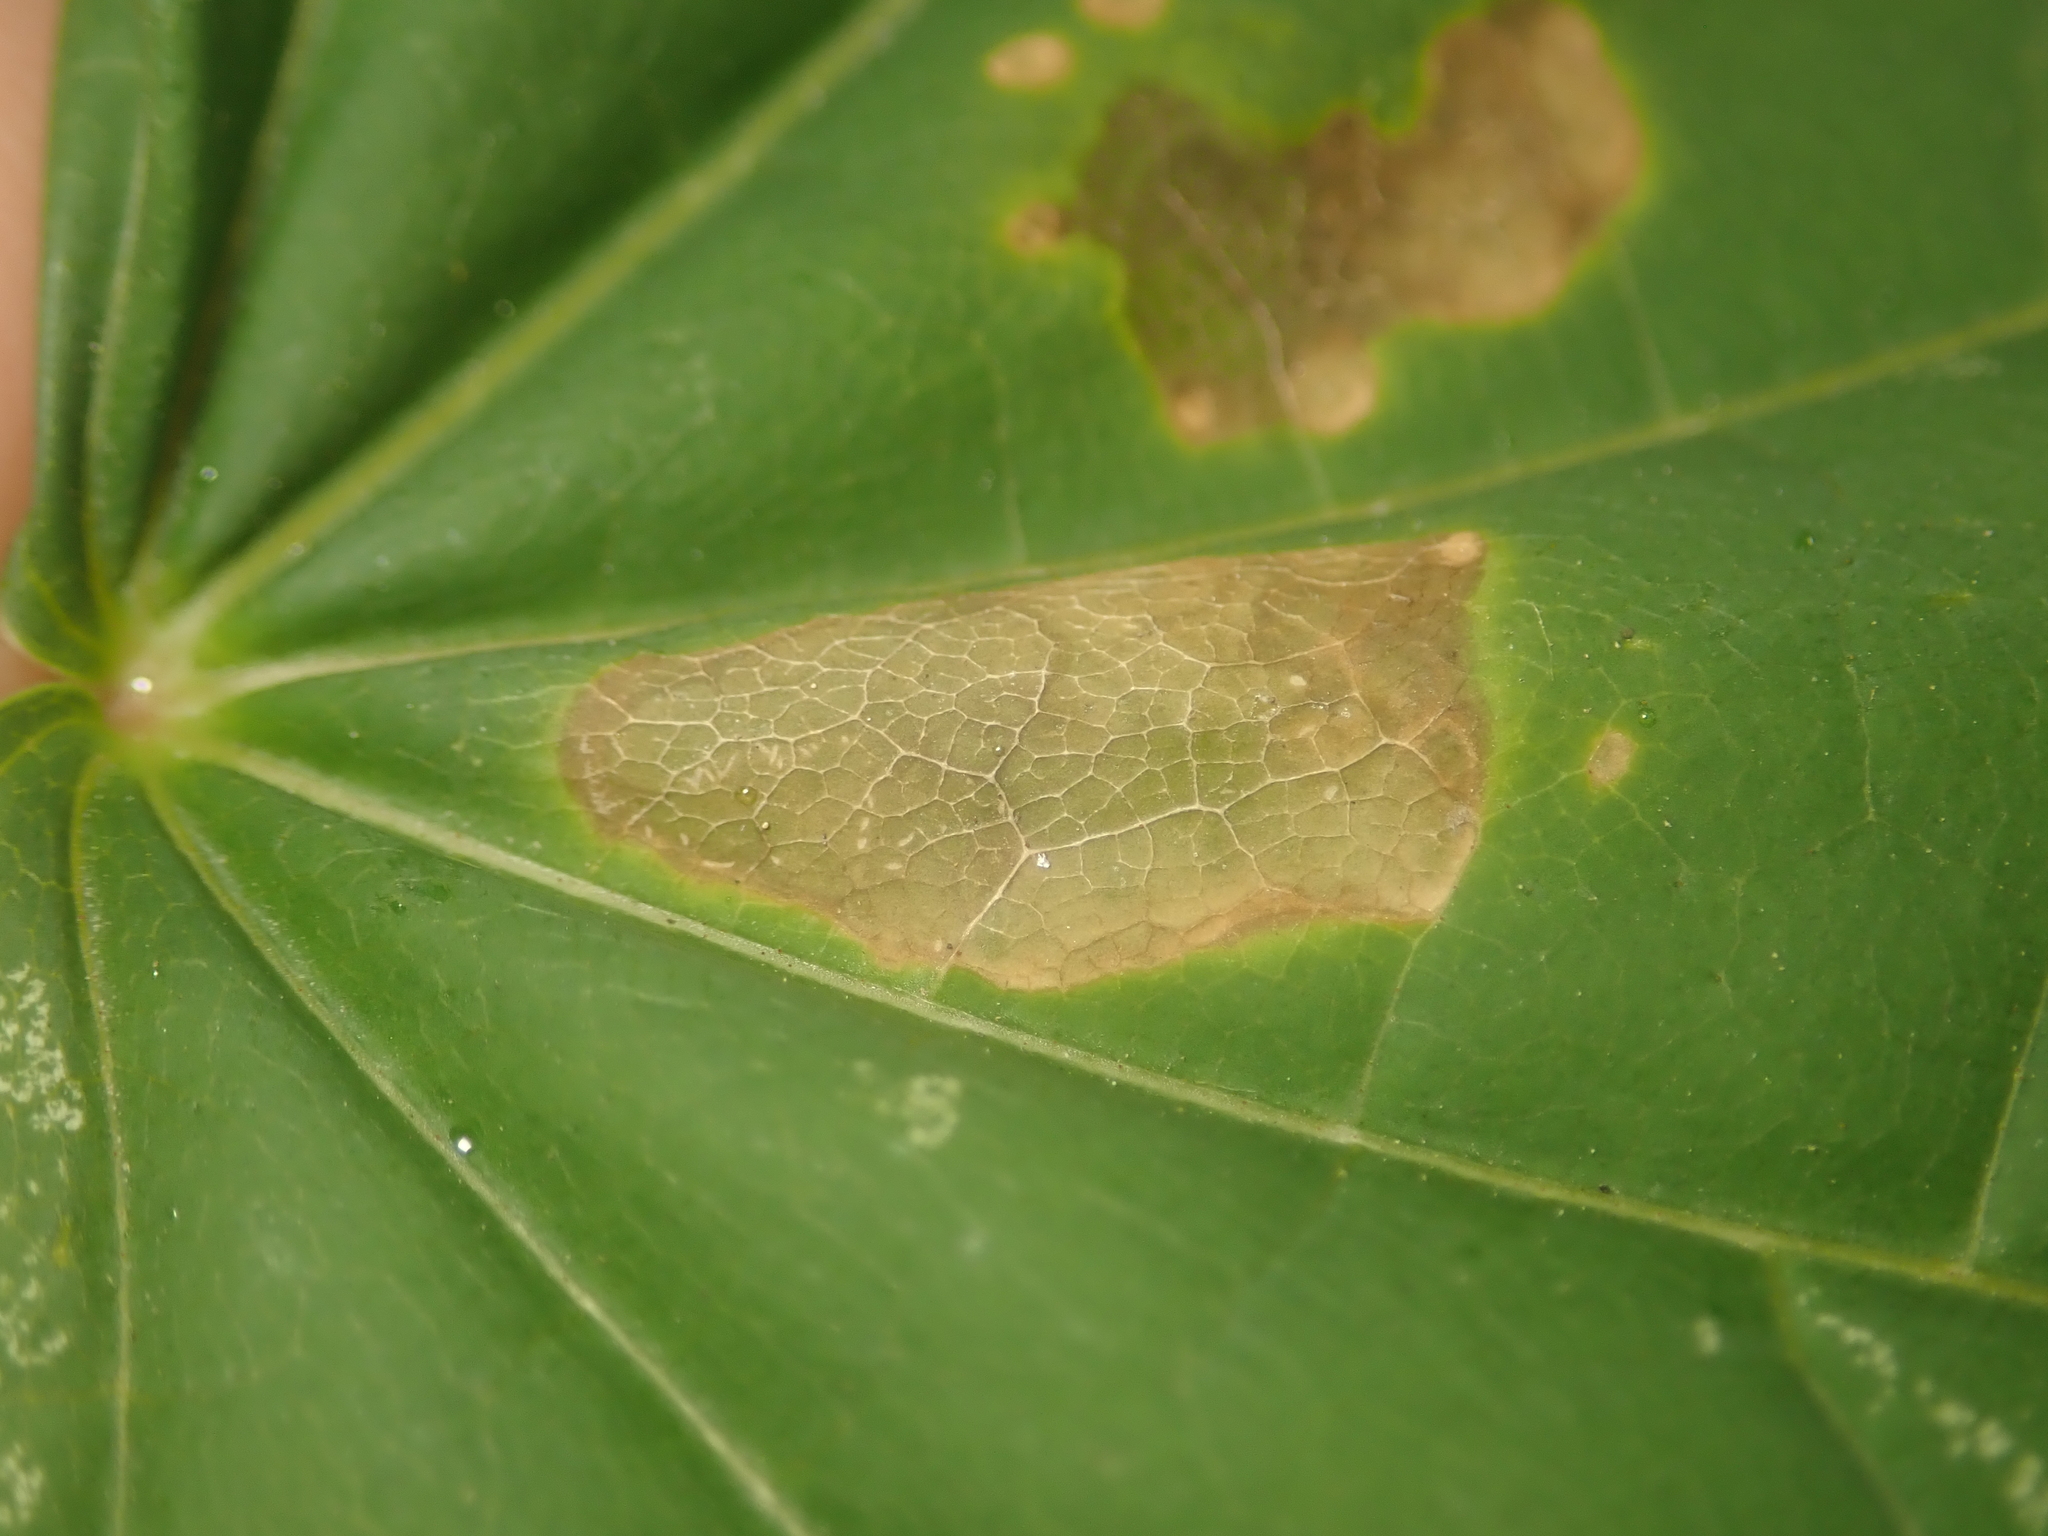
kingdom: Animalia
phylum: Arthropoda
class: Insecta
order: Lepidoptera
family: Gracillariidae
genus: Phyllonorycter
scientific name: Phyllonorycter joannisi
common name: White-bodied midget
